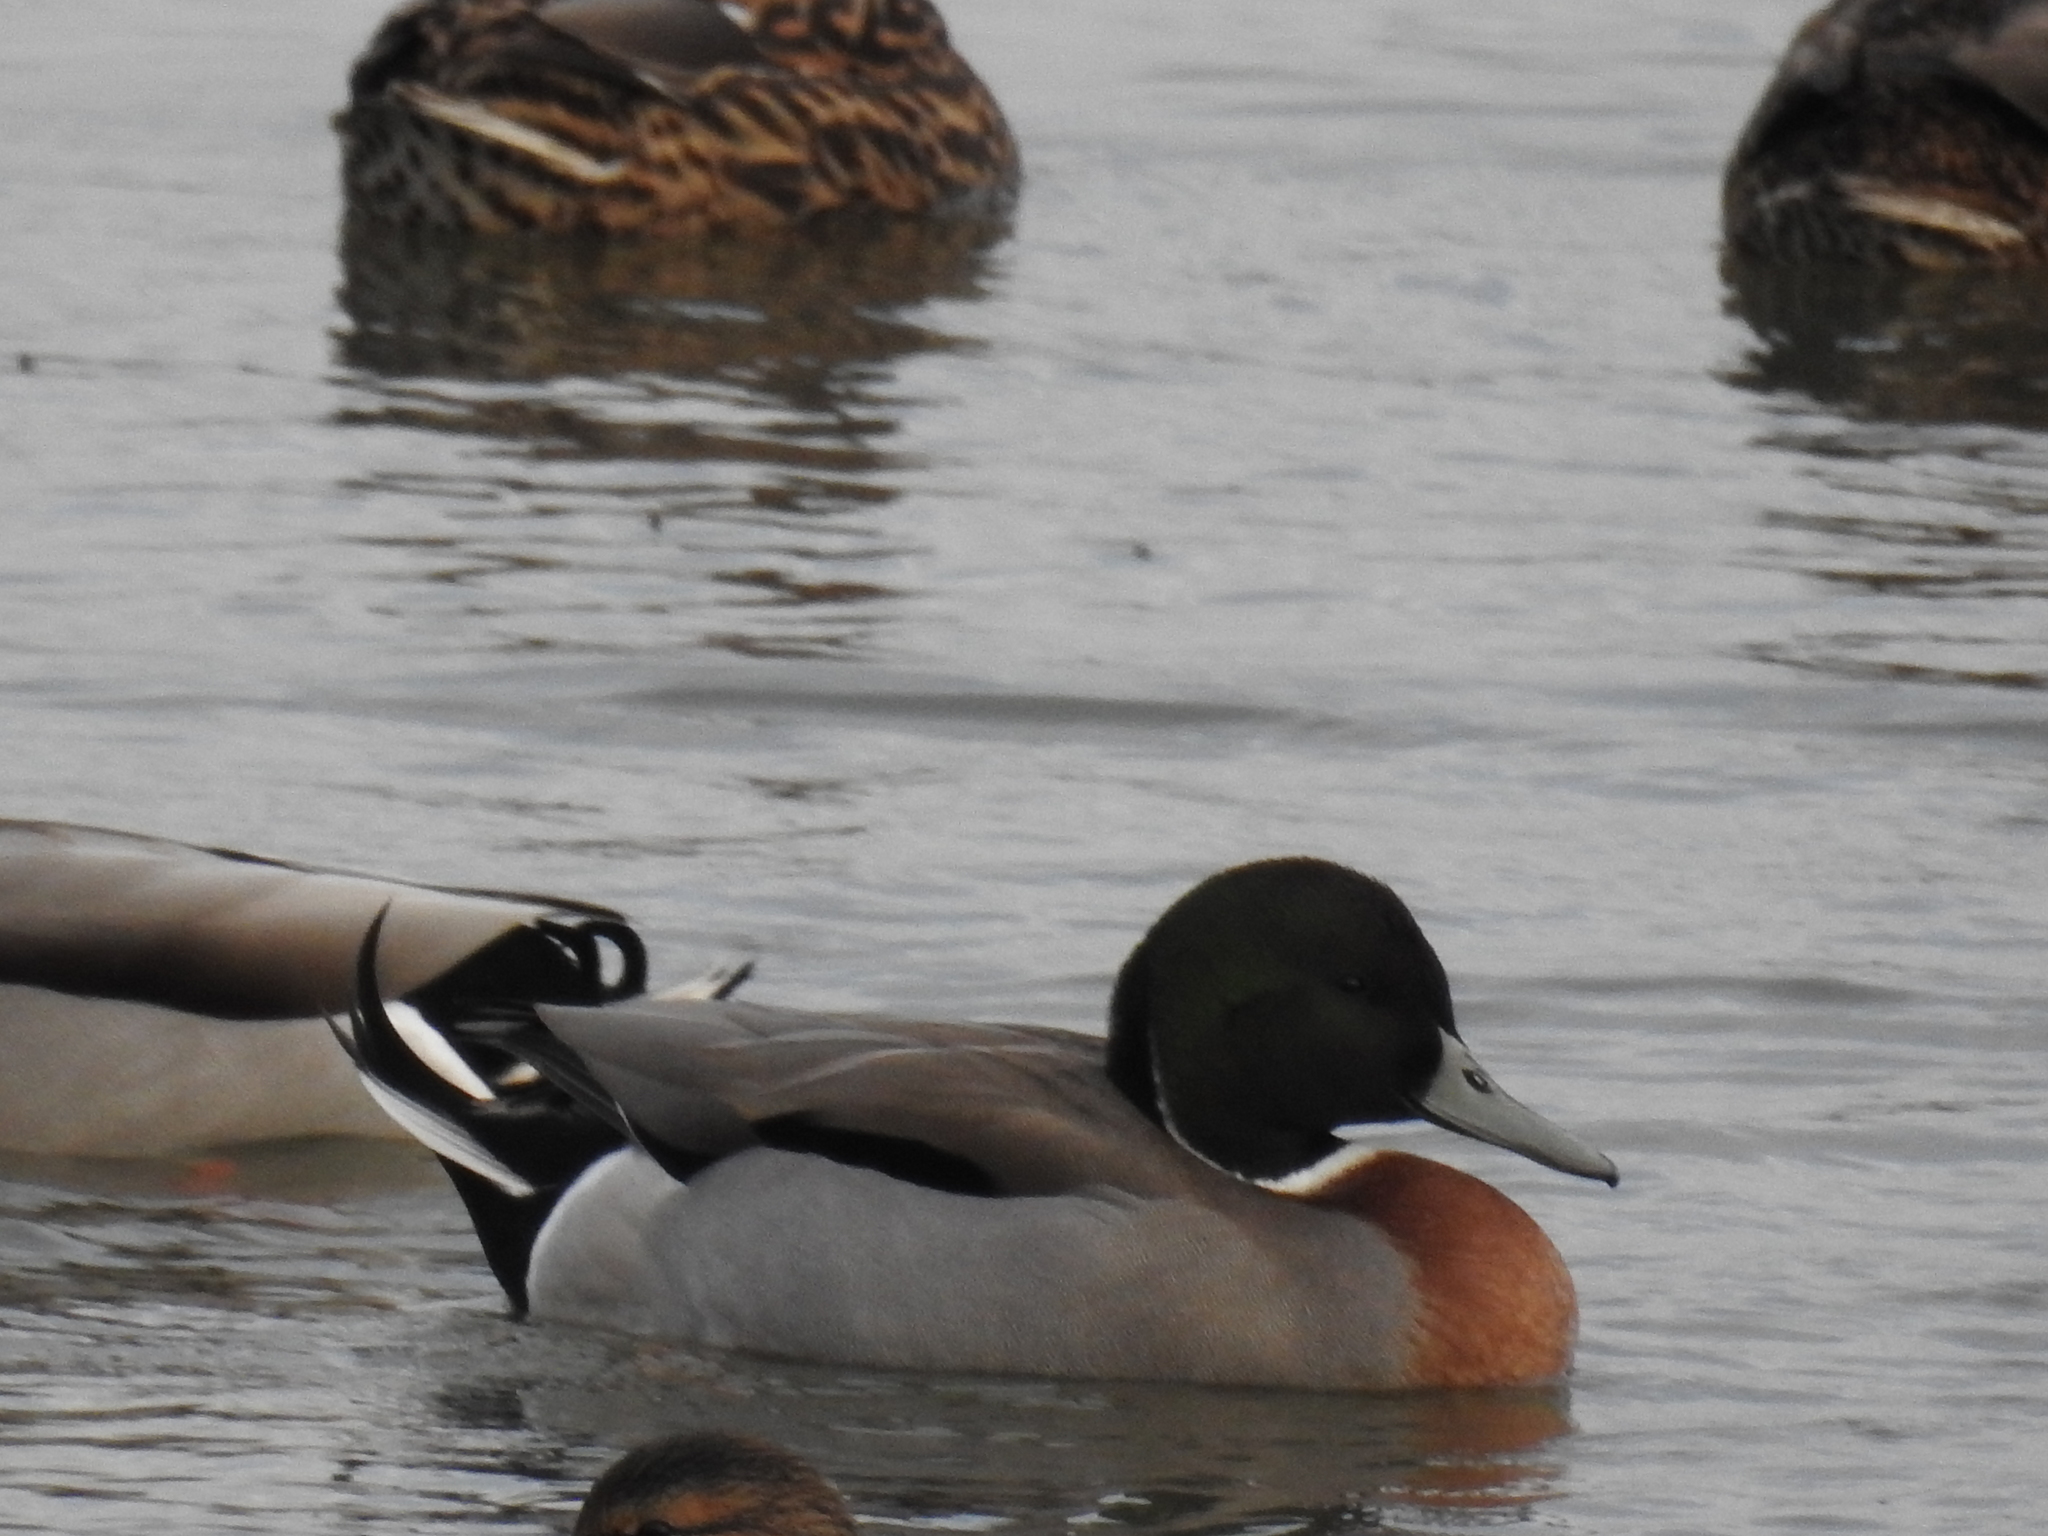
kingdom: Animalia
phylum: Chordata
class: Aves
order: Anseriformes
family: Anatidae
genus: Anas
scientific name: Anas
